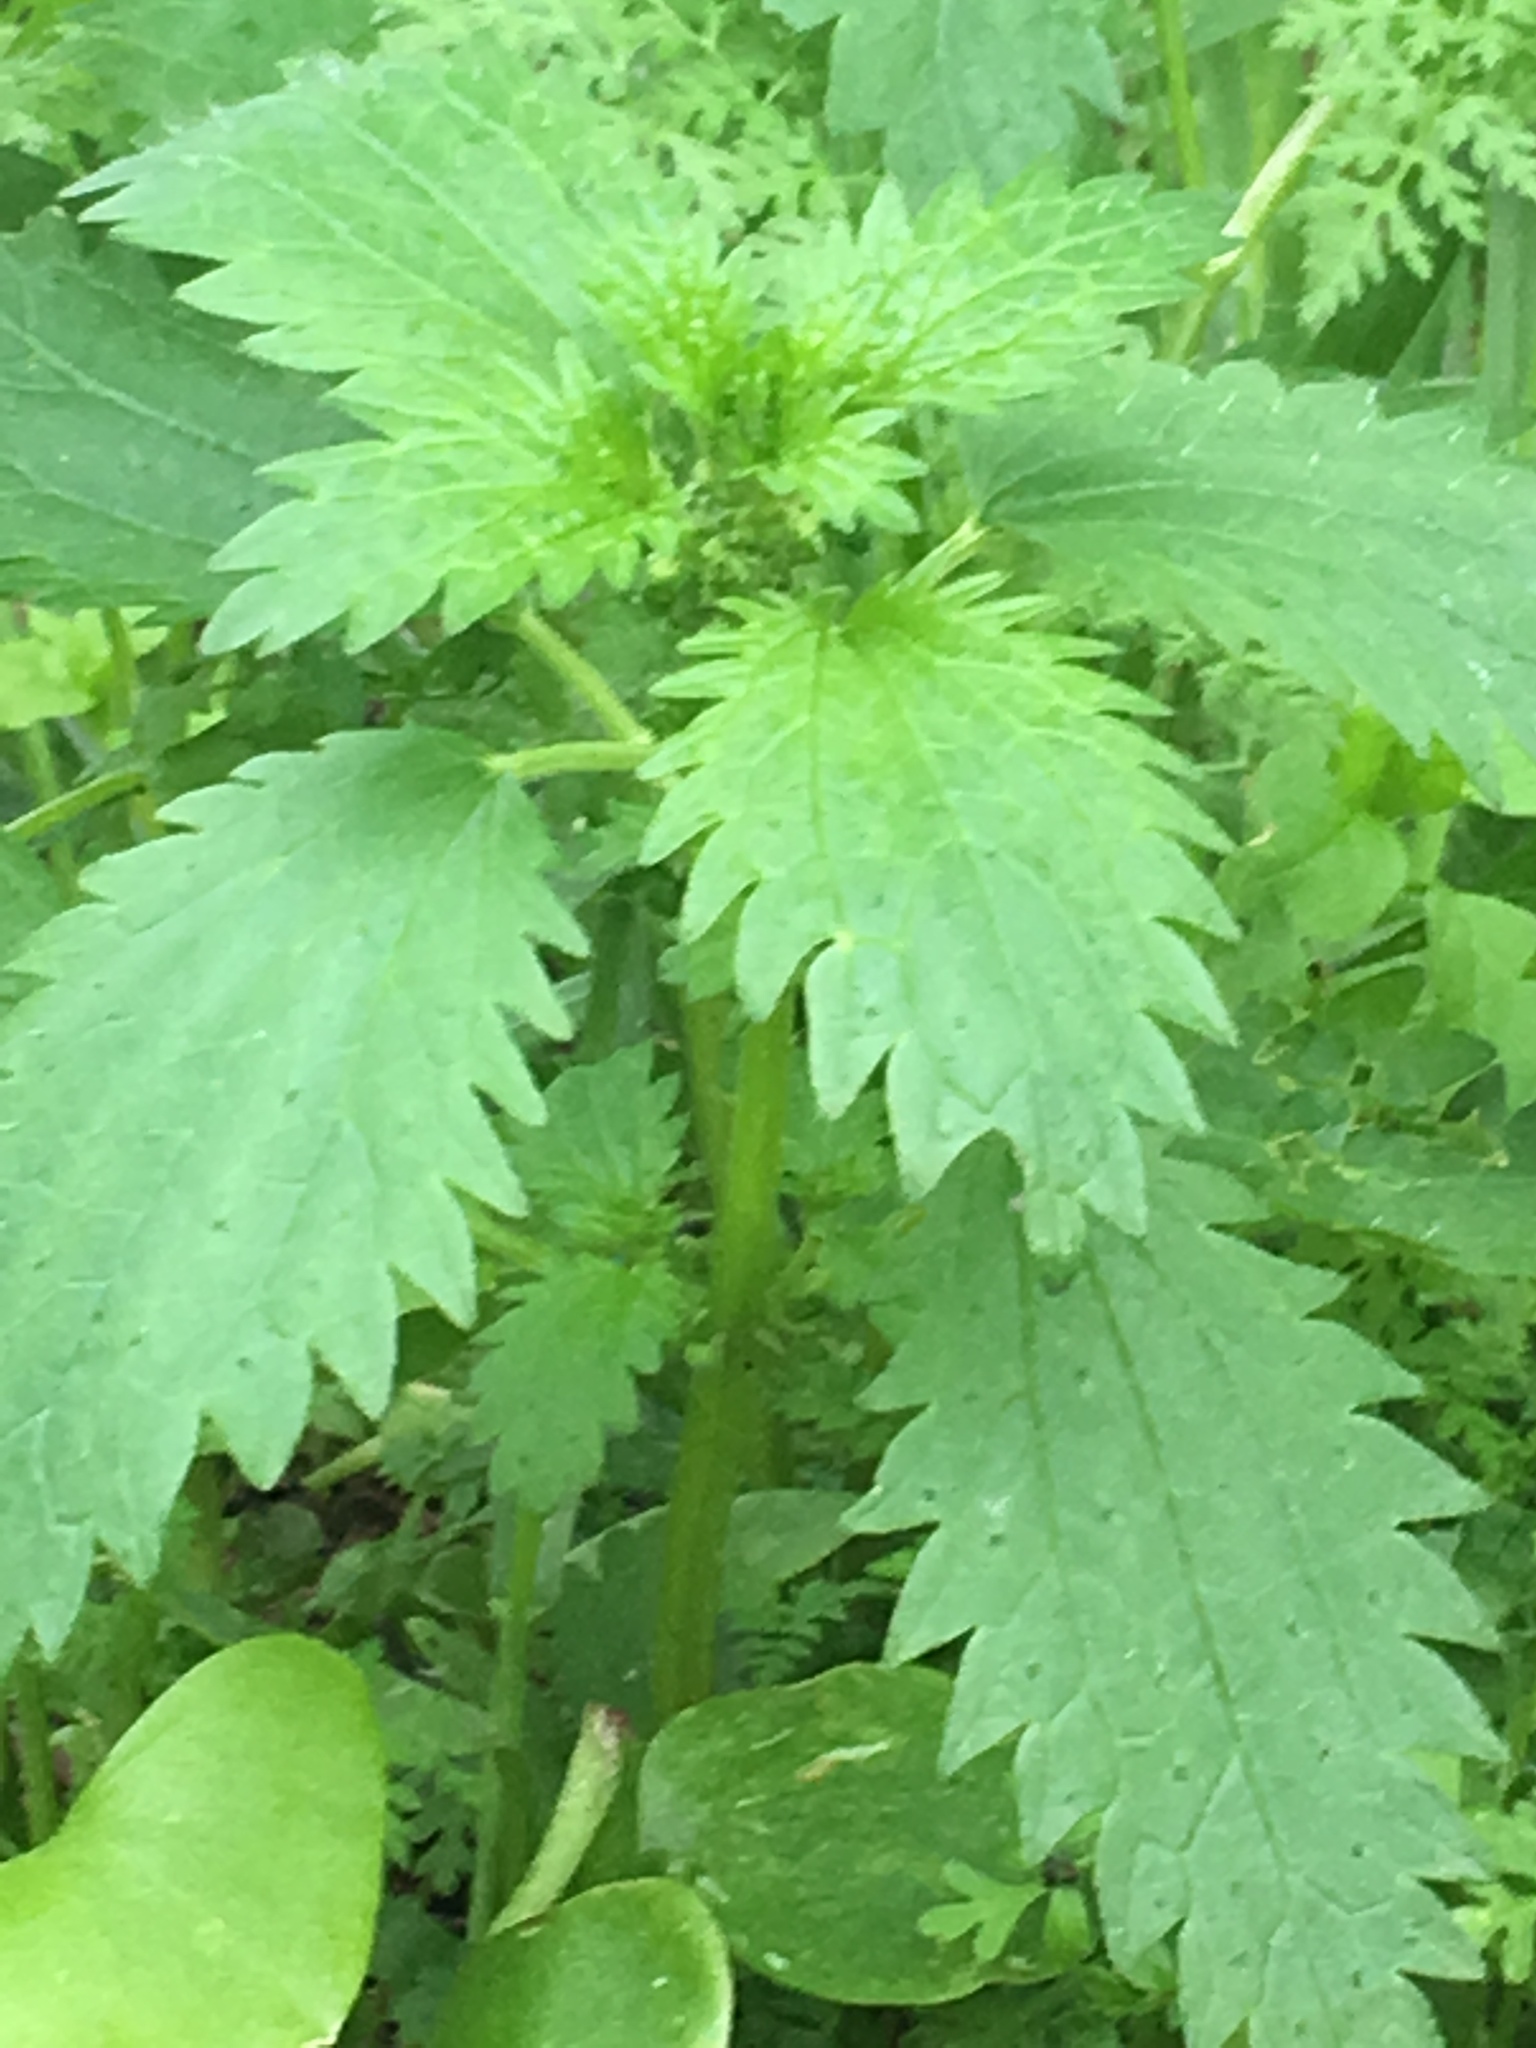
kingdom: Plantae
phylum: Tracheophyta
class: Magnoliopsida
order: Rosales
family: Urticaceae
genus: Urtica
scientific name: Urtica urens
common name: Dwarf nettle
